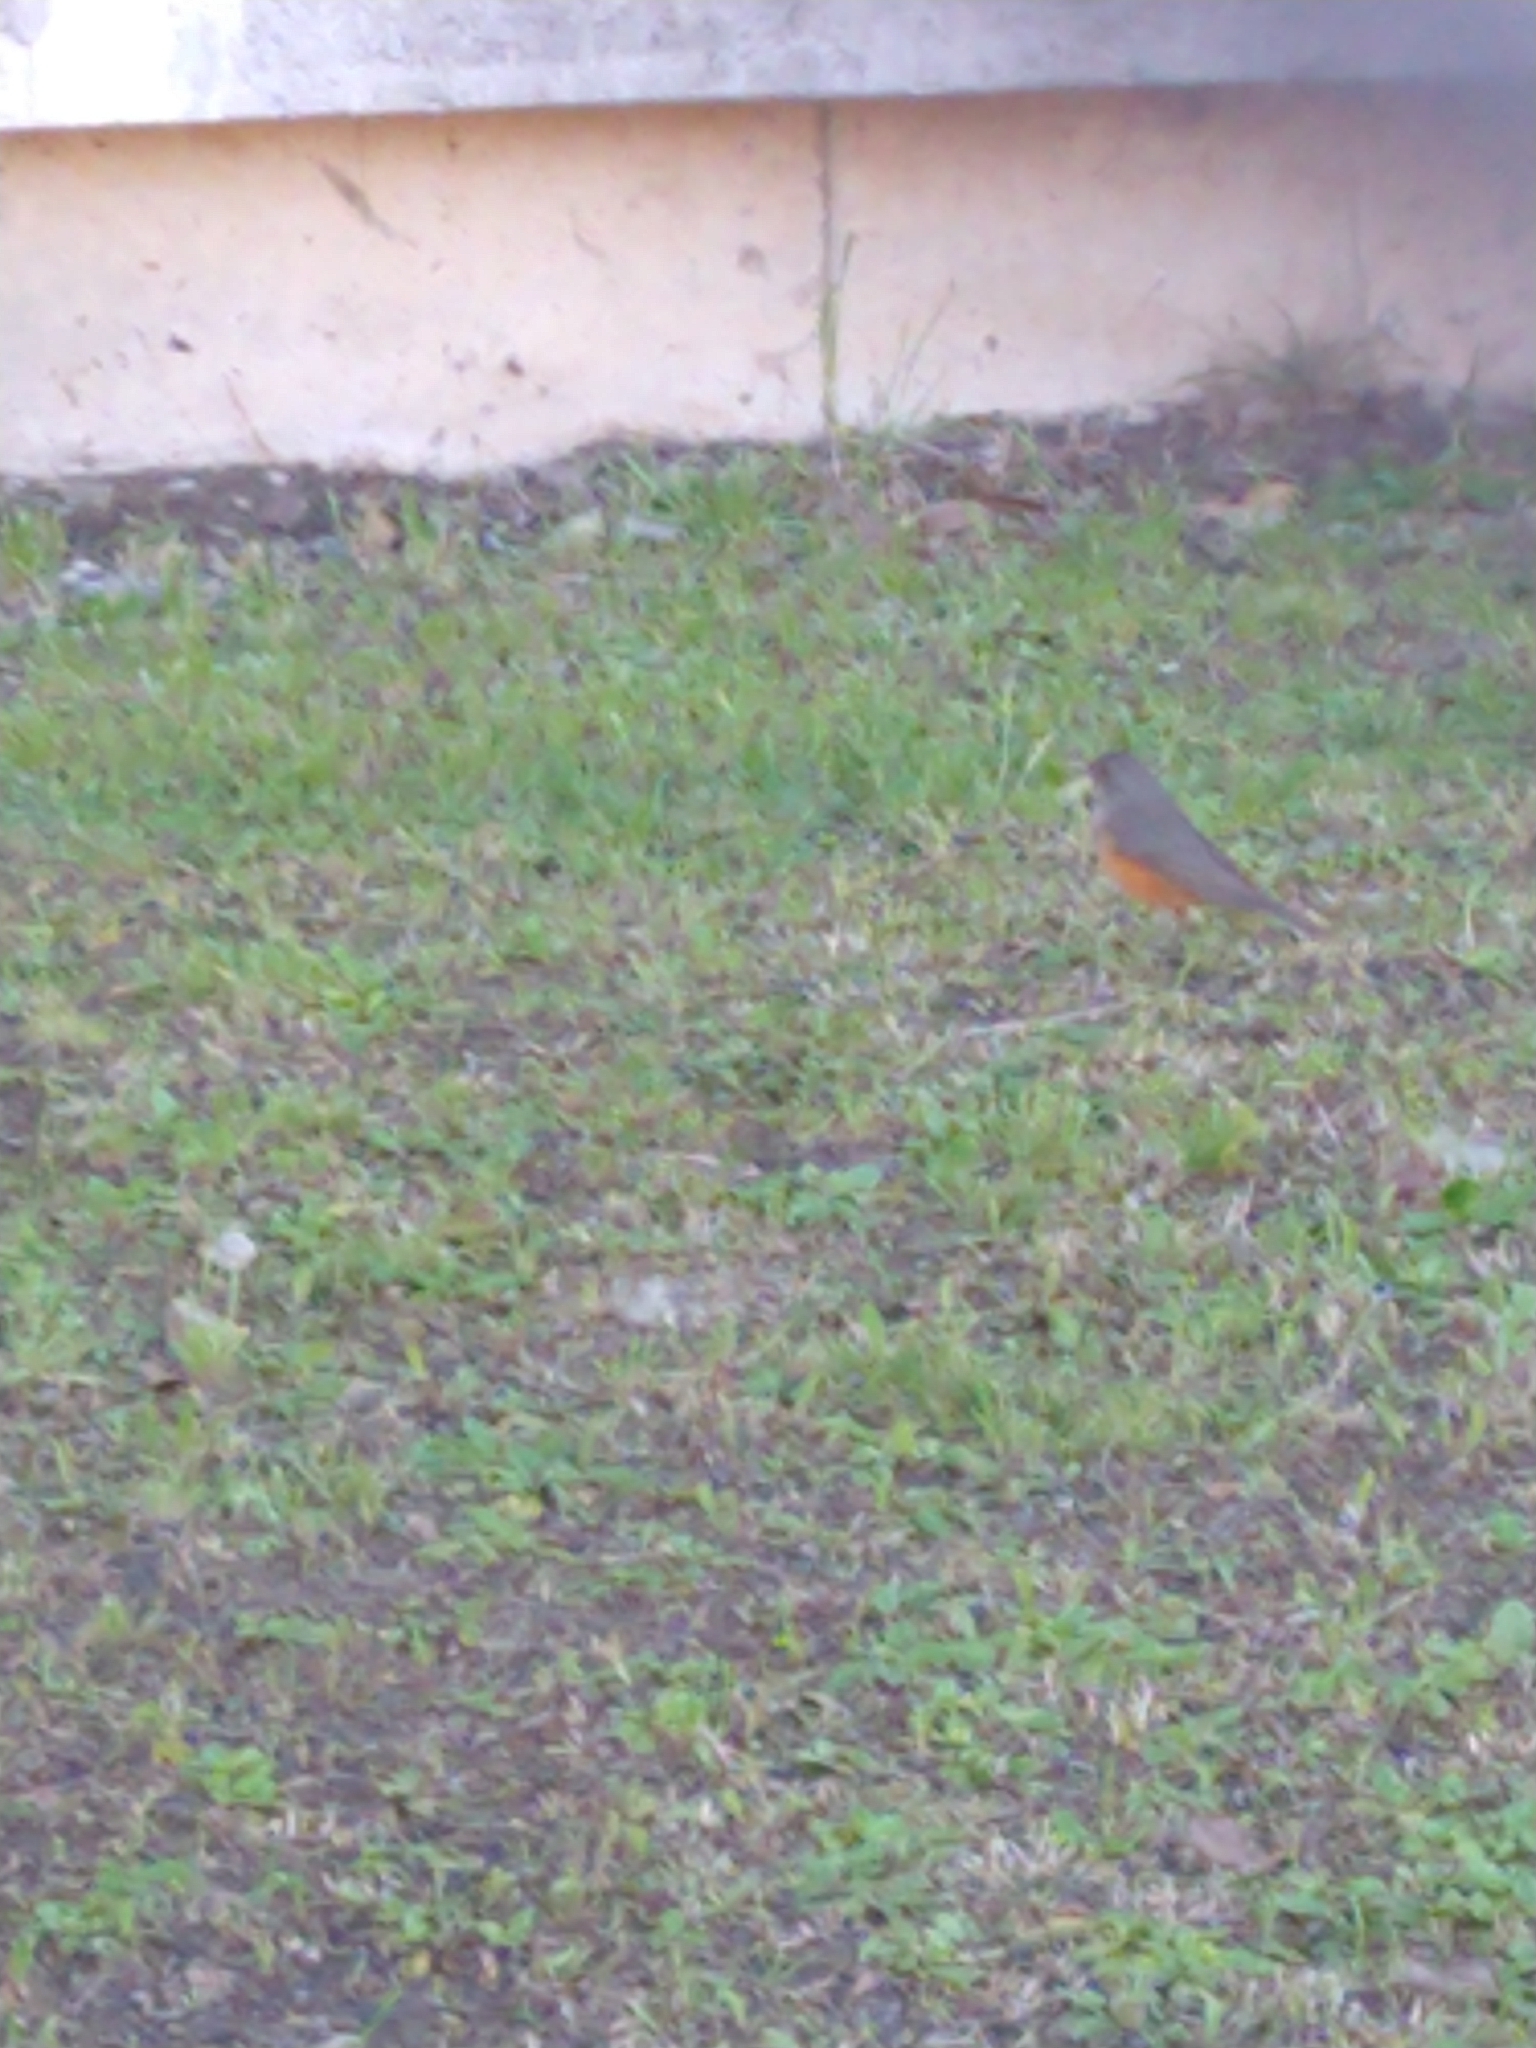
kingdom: Animalia
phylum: Chordata
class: Aves
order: Passeriformes
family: Turdidae
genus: Turdus
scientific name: Turdus rufiventris
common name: Rufous-bellied thrush
